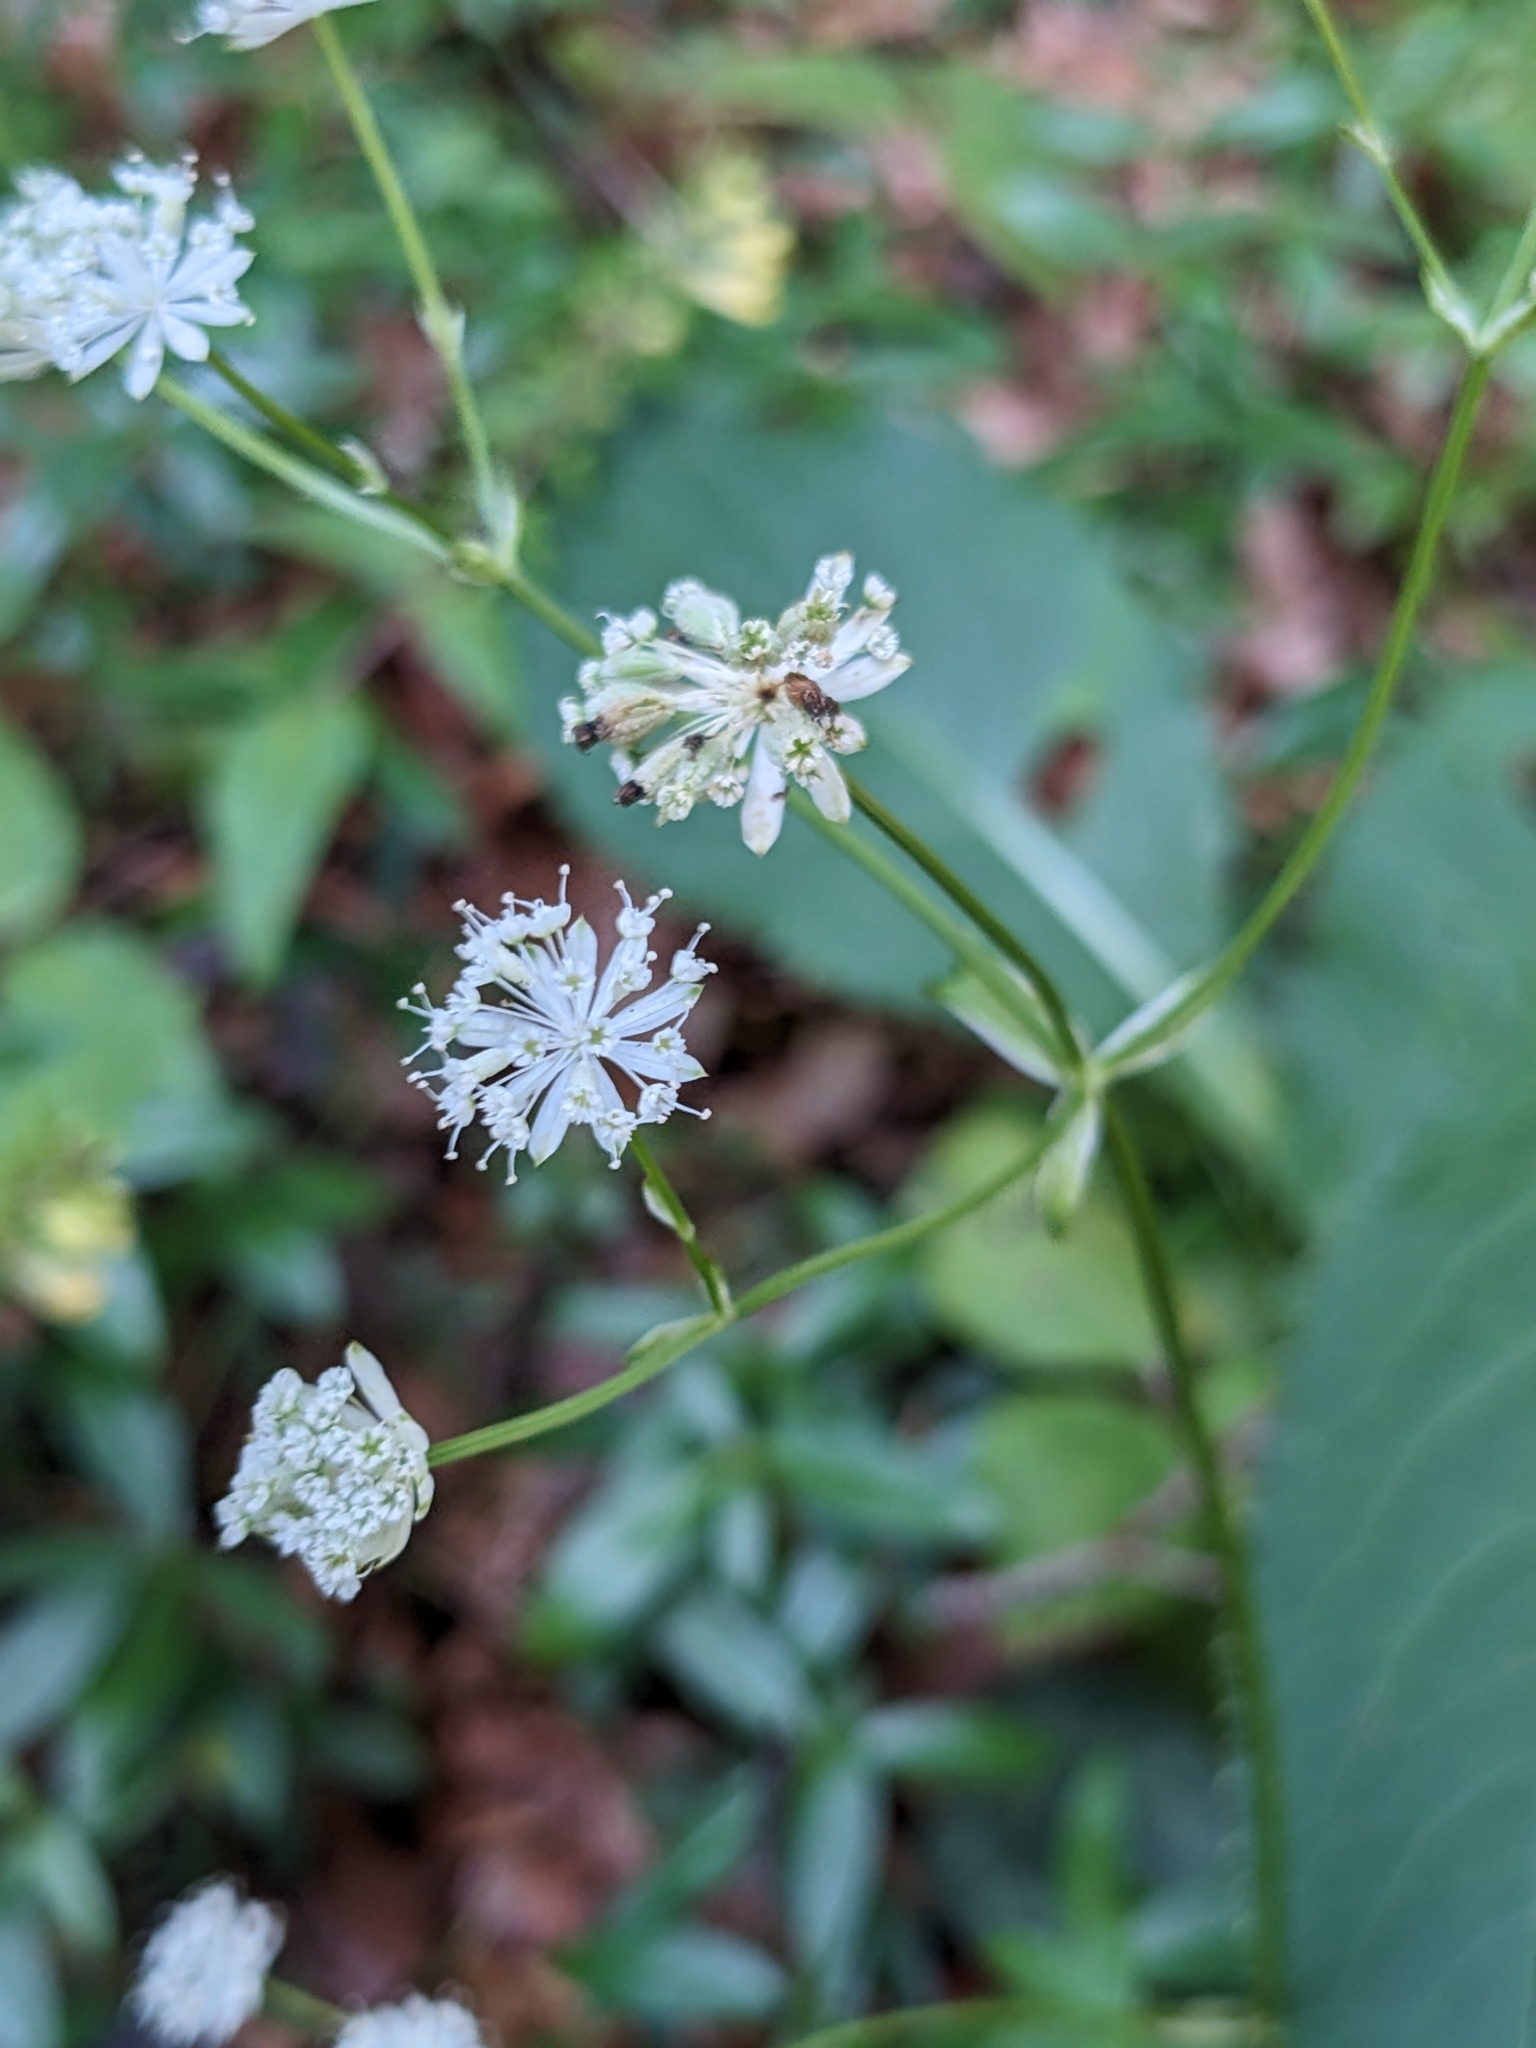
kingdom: Plantae
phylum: Tracheophyta
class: Magnoliopsida
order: Apiales
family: Apiaceae
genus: Astrantia
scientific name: Astrantia carniolica
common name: Carnic masterwort
